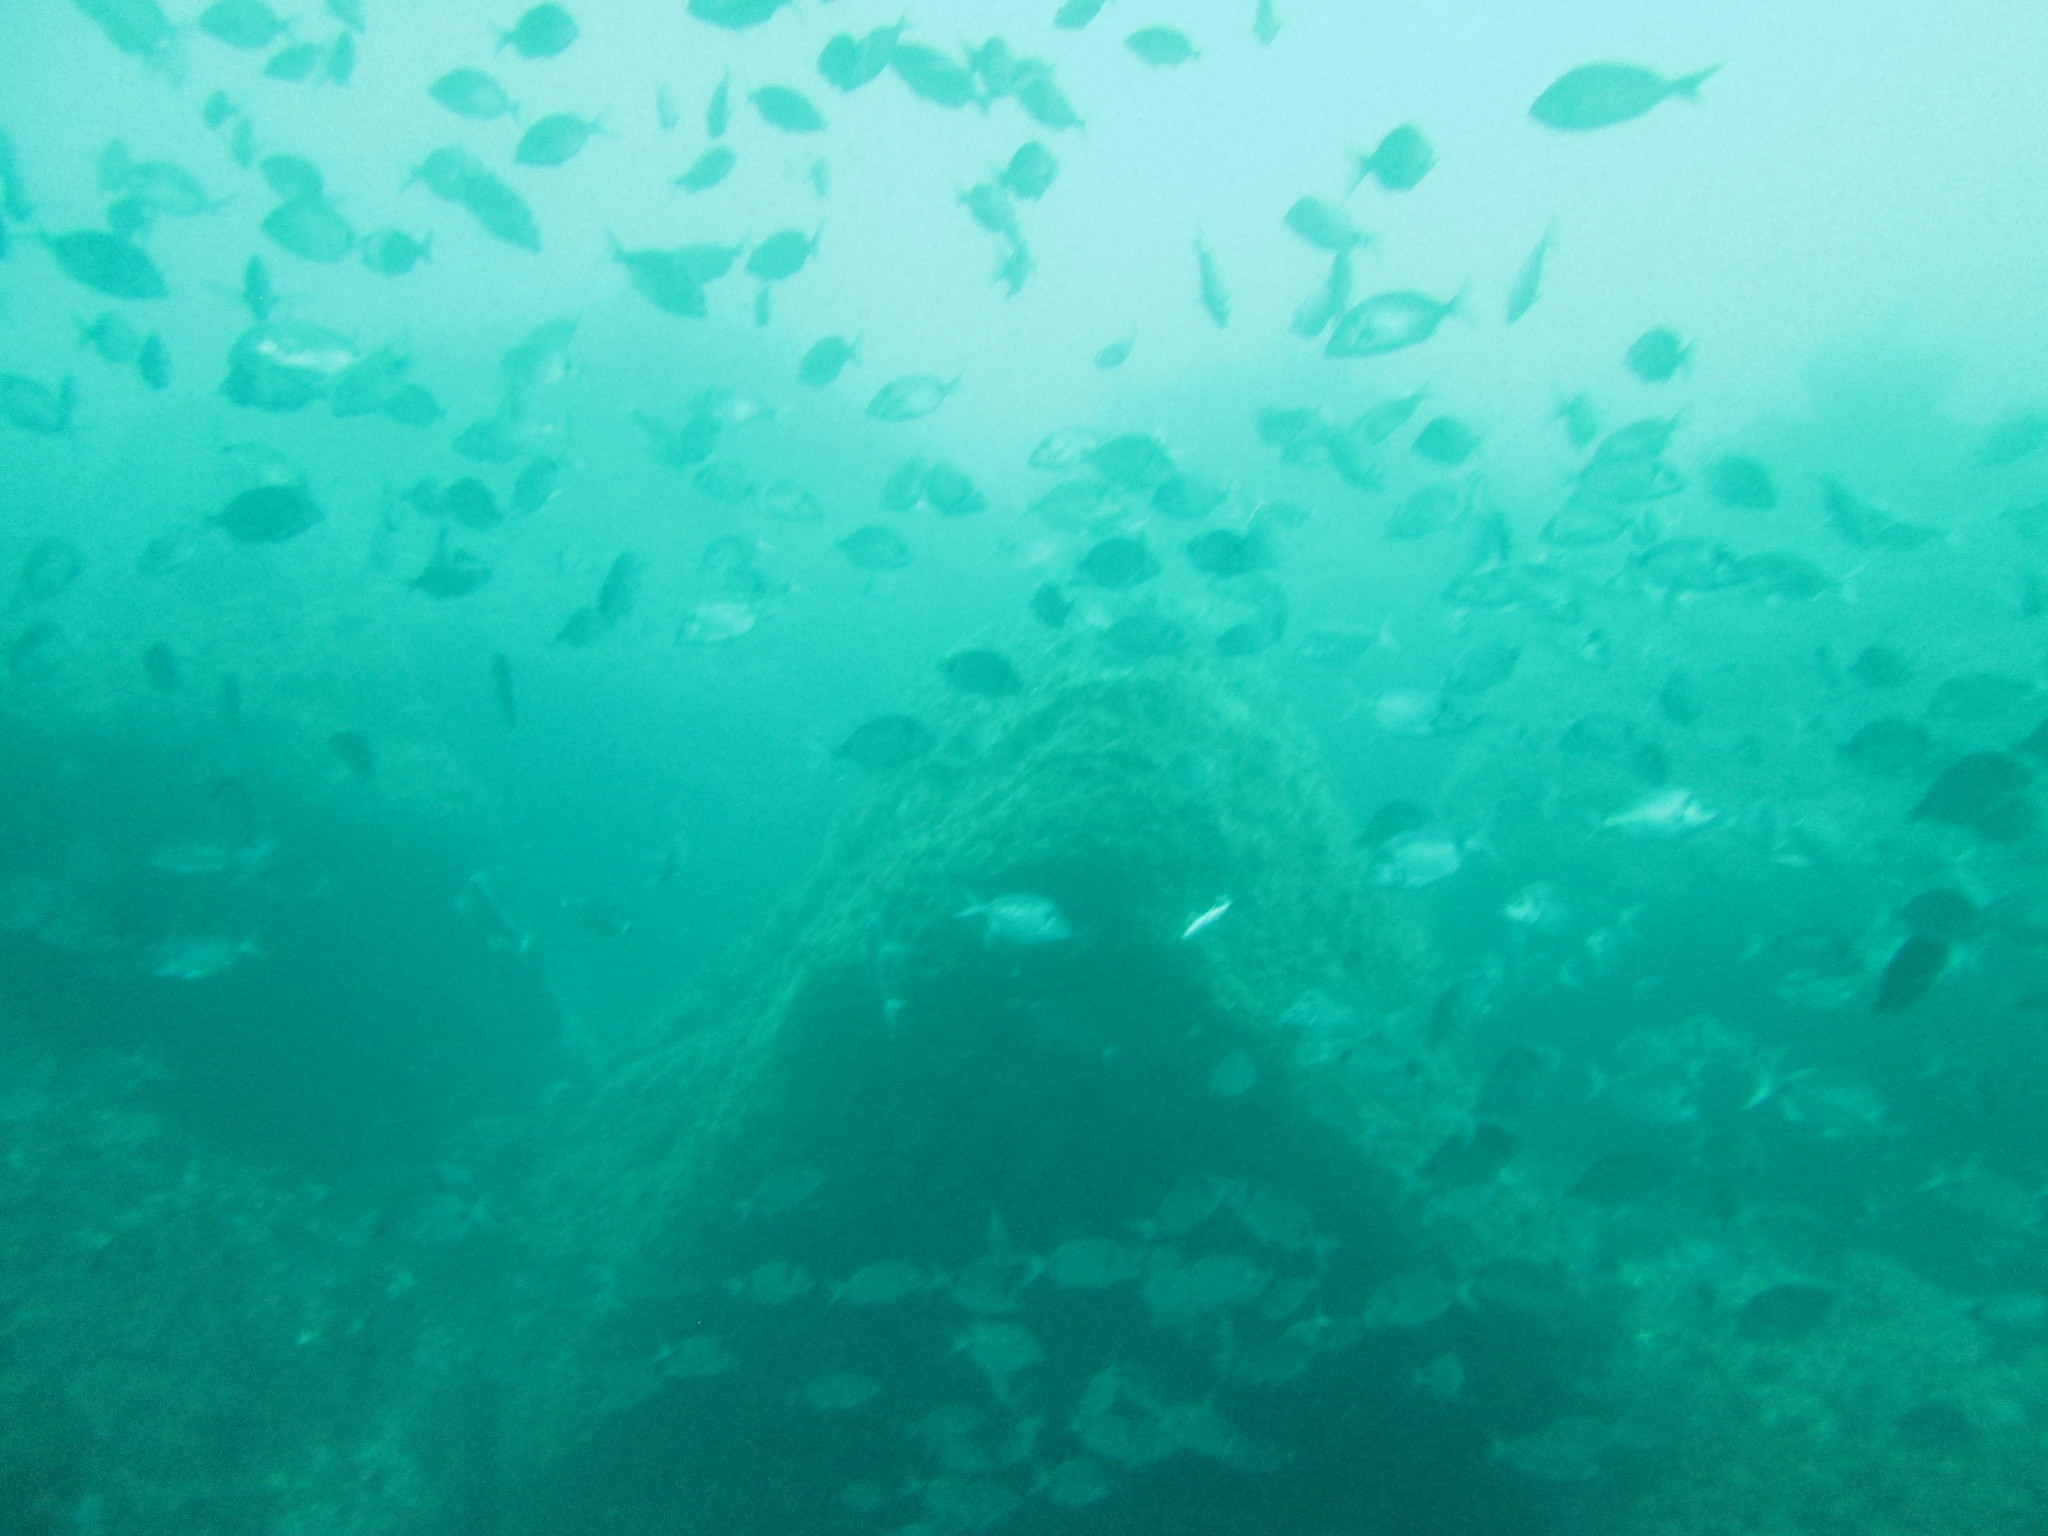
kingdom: Animalia
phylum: Chordata
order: Perciformes
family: Sparidae
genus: Diplodus
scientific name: Diplodus vulgaris
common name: Common two-banded seabream
